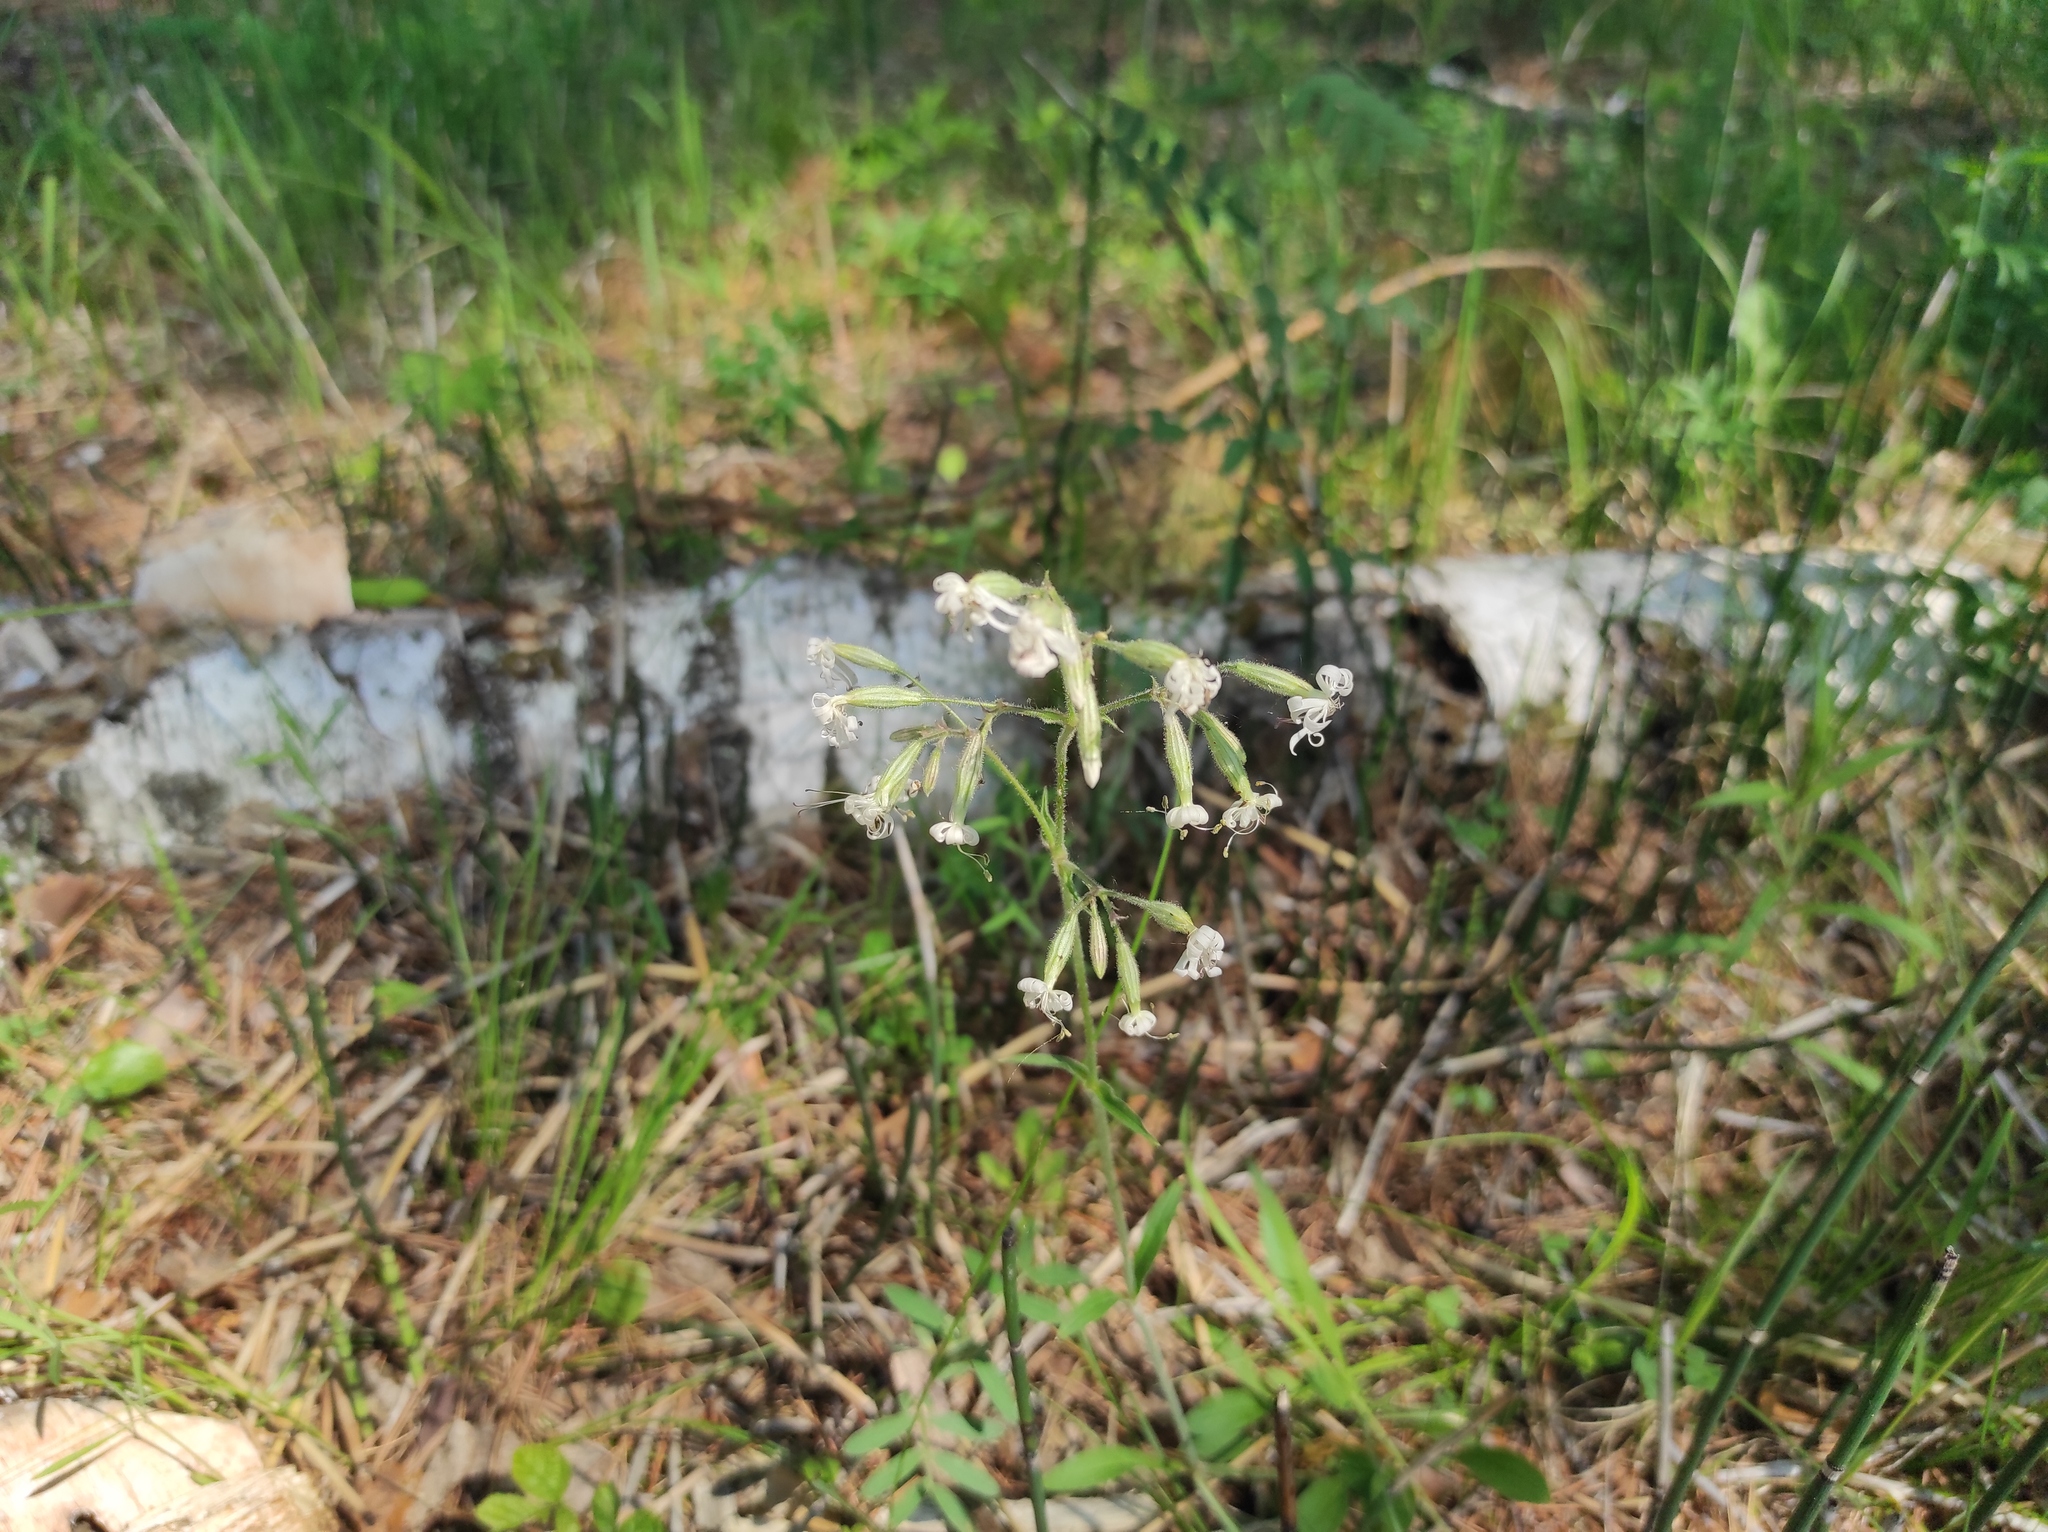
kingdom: Plantae
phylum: Tracheophyta
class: Magnoliopsida
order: Caryophyllales
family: Caryophyllaceae
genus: Silene
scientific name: Silene nutans
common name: Nottingham catchfly
